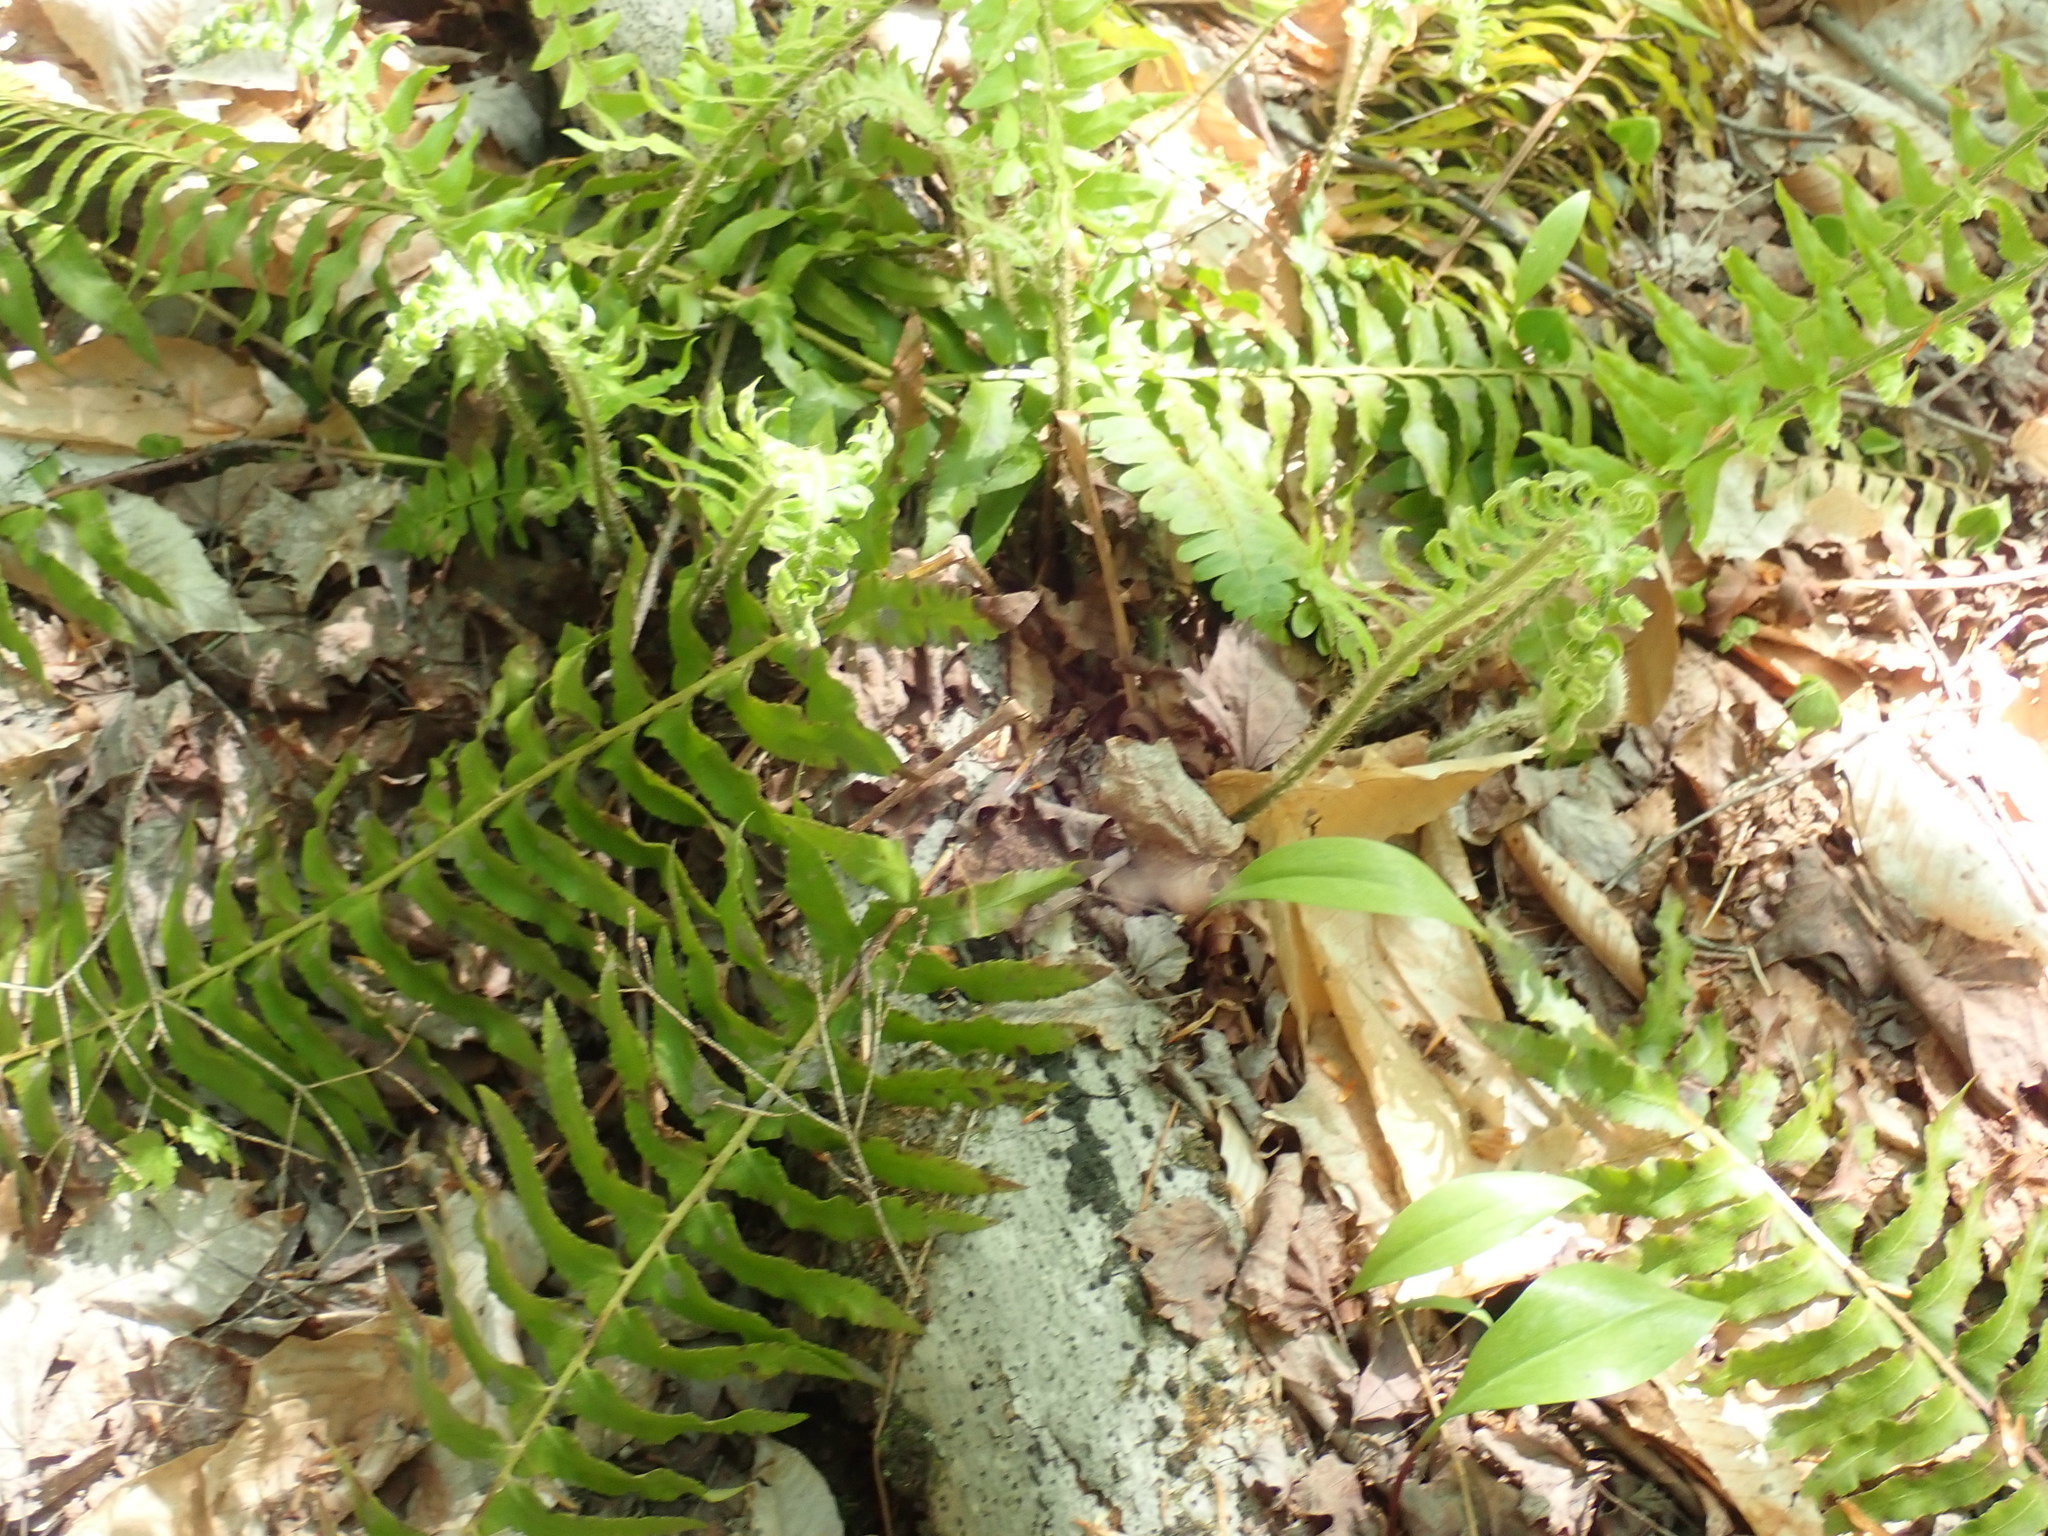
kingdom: Plantae
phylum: Tracheophyta
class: Polypodiopsida
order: Polypodiales
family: Dryopteridaceae
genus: Polystichum
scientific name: Polystichum acrostichoides
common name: Christmas fern
